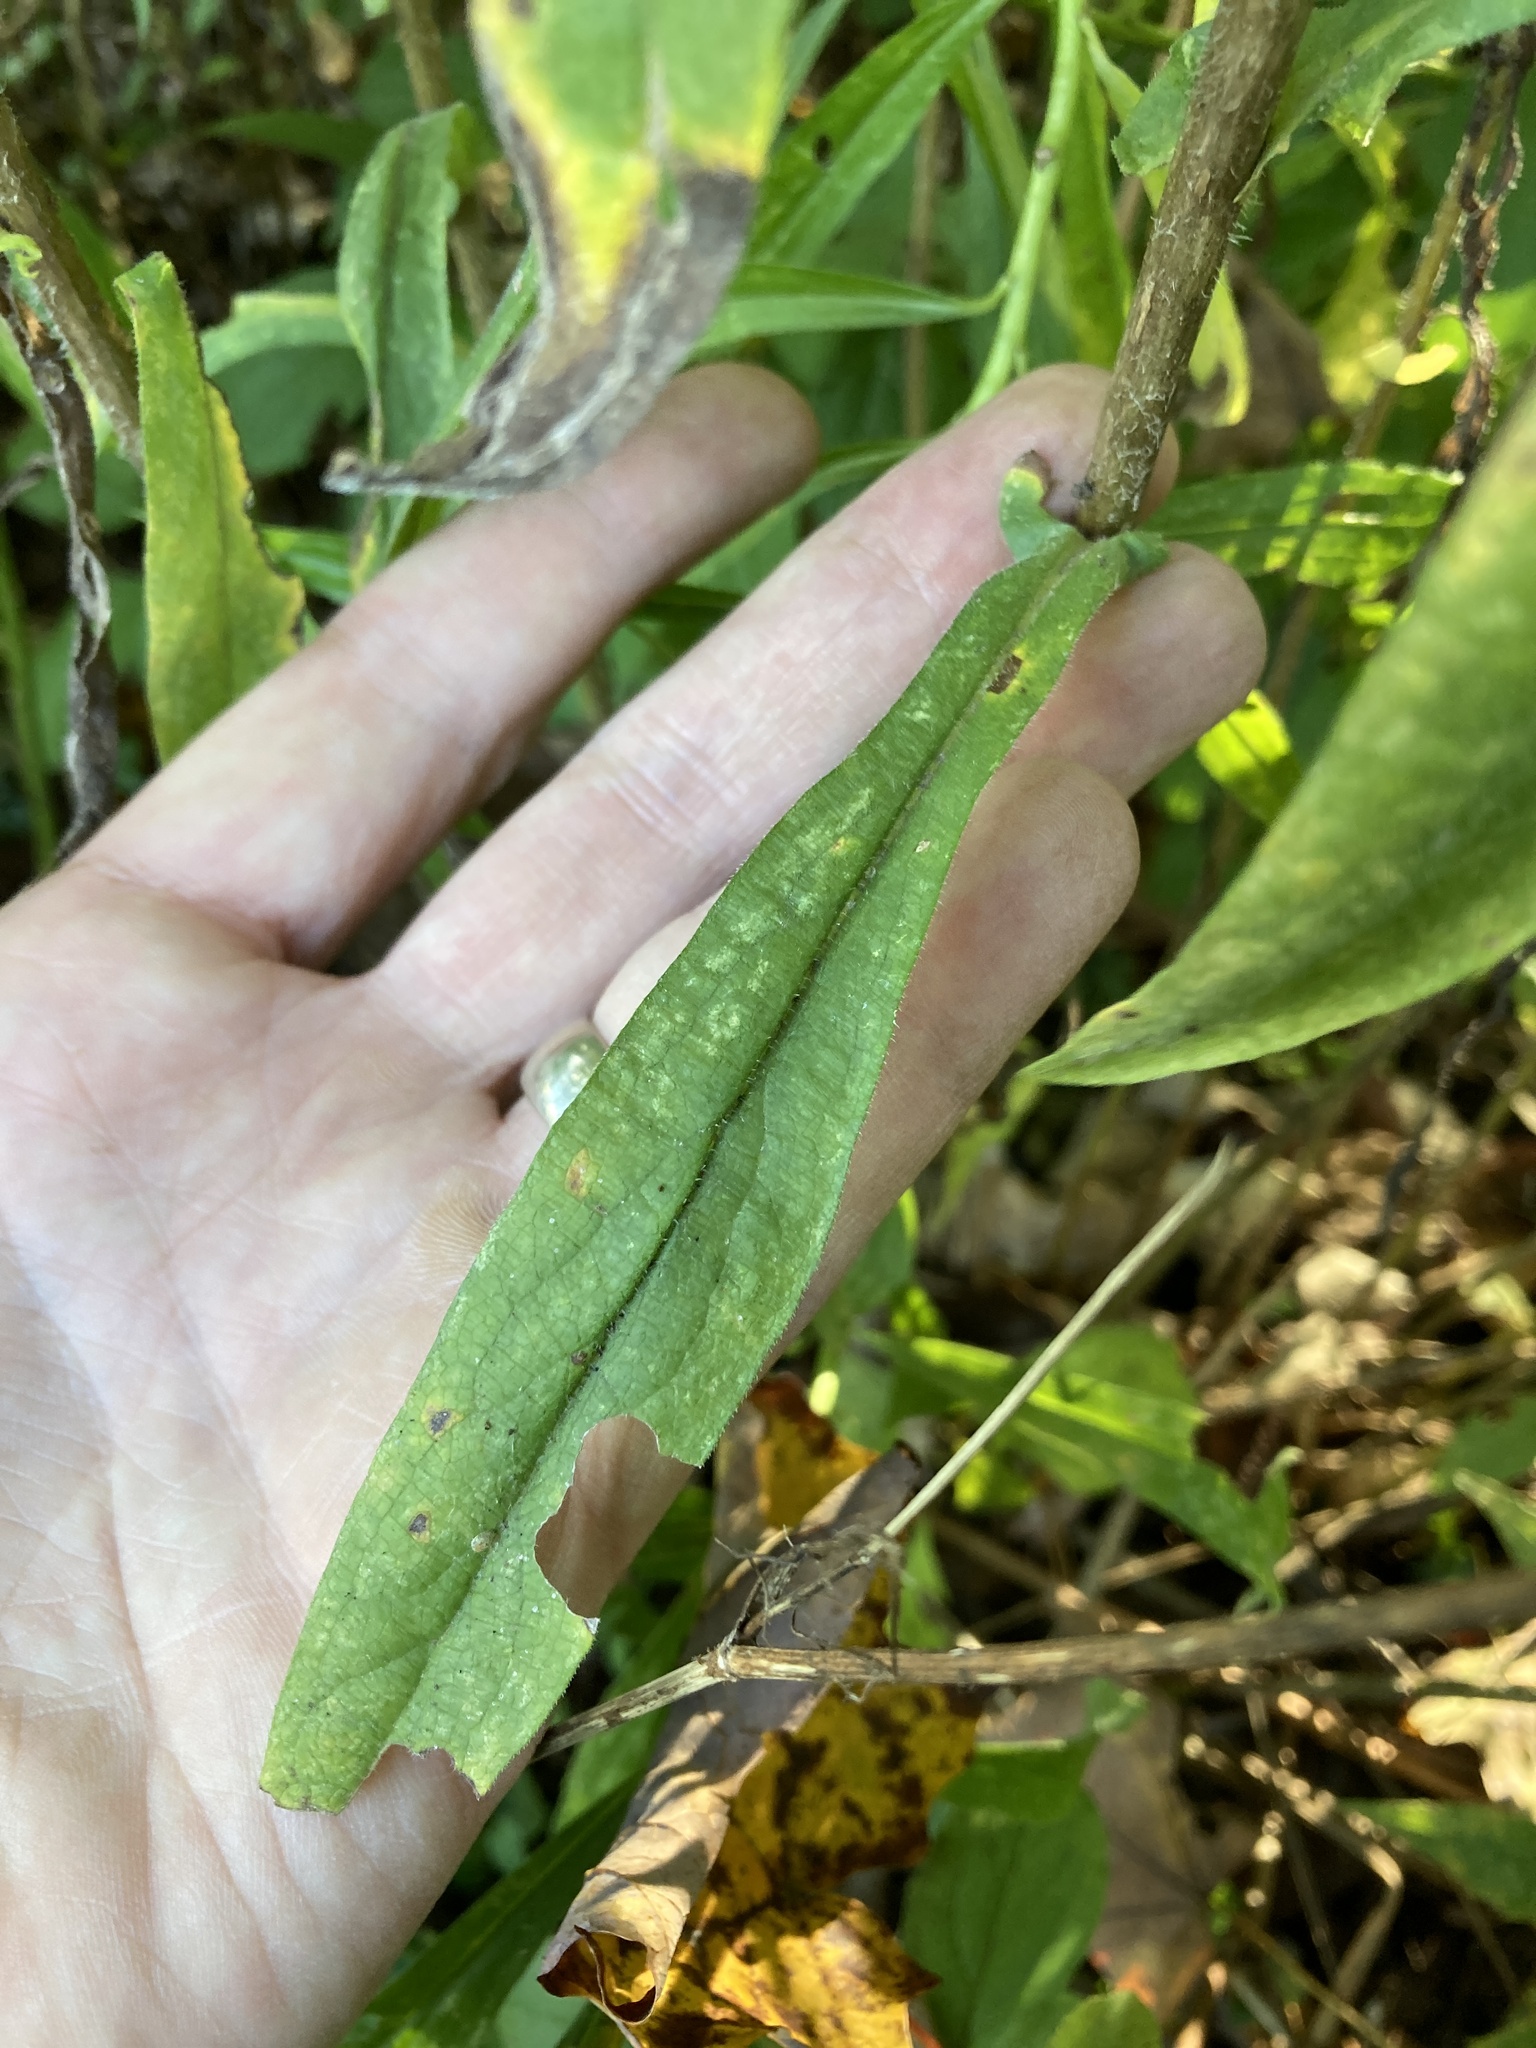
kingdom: Plantae
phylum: Tracheophyta
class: Magnoliopsida
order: Asterales
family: Asteraceae
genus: Symphyotrichum
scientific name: Symphyotrichum novae-angliae
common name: Michaelmas daisy
